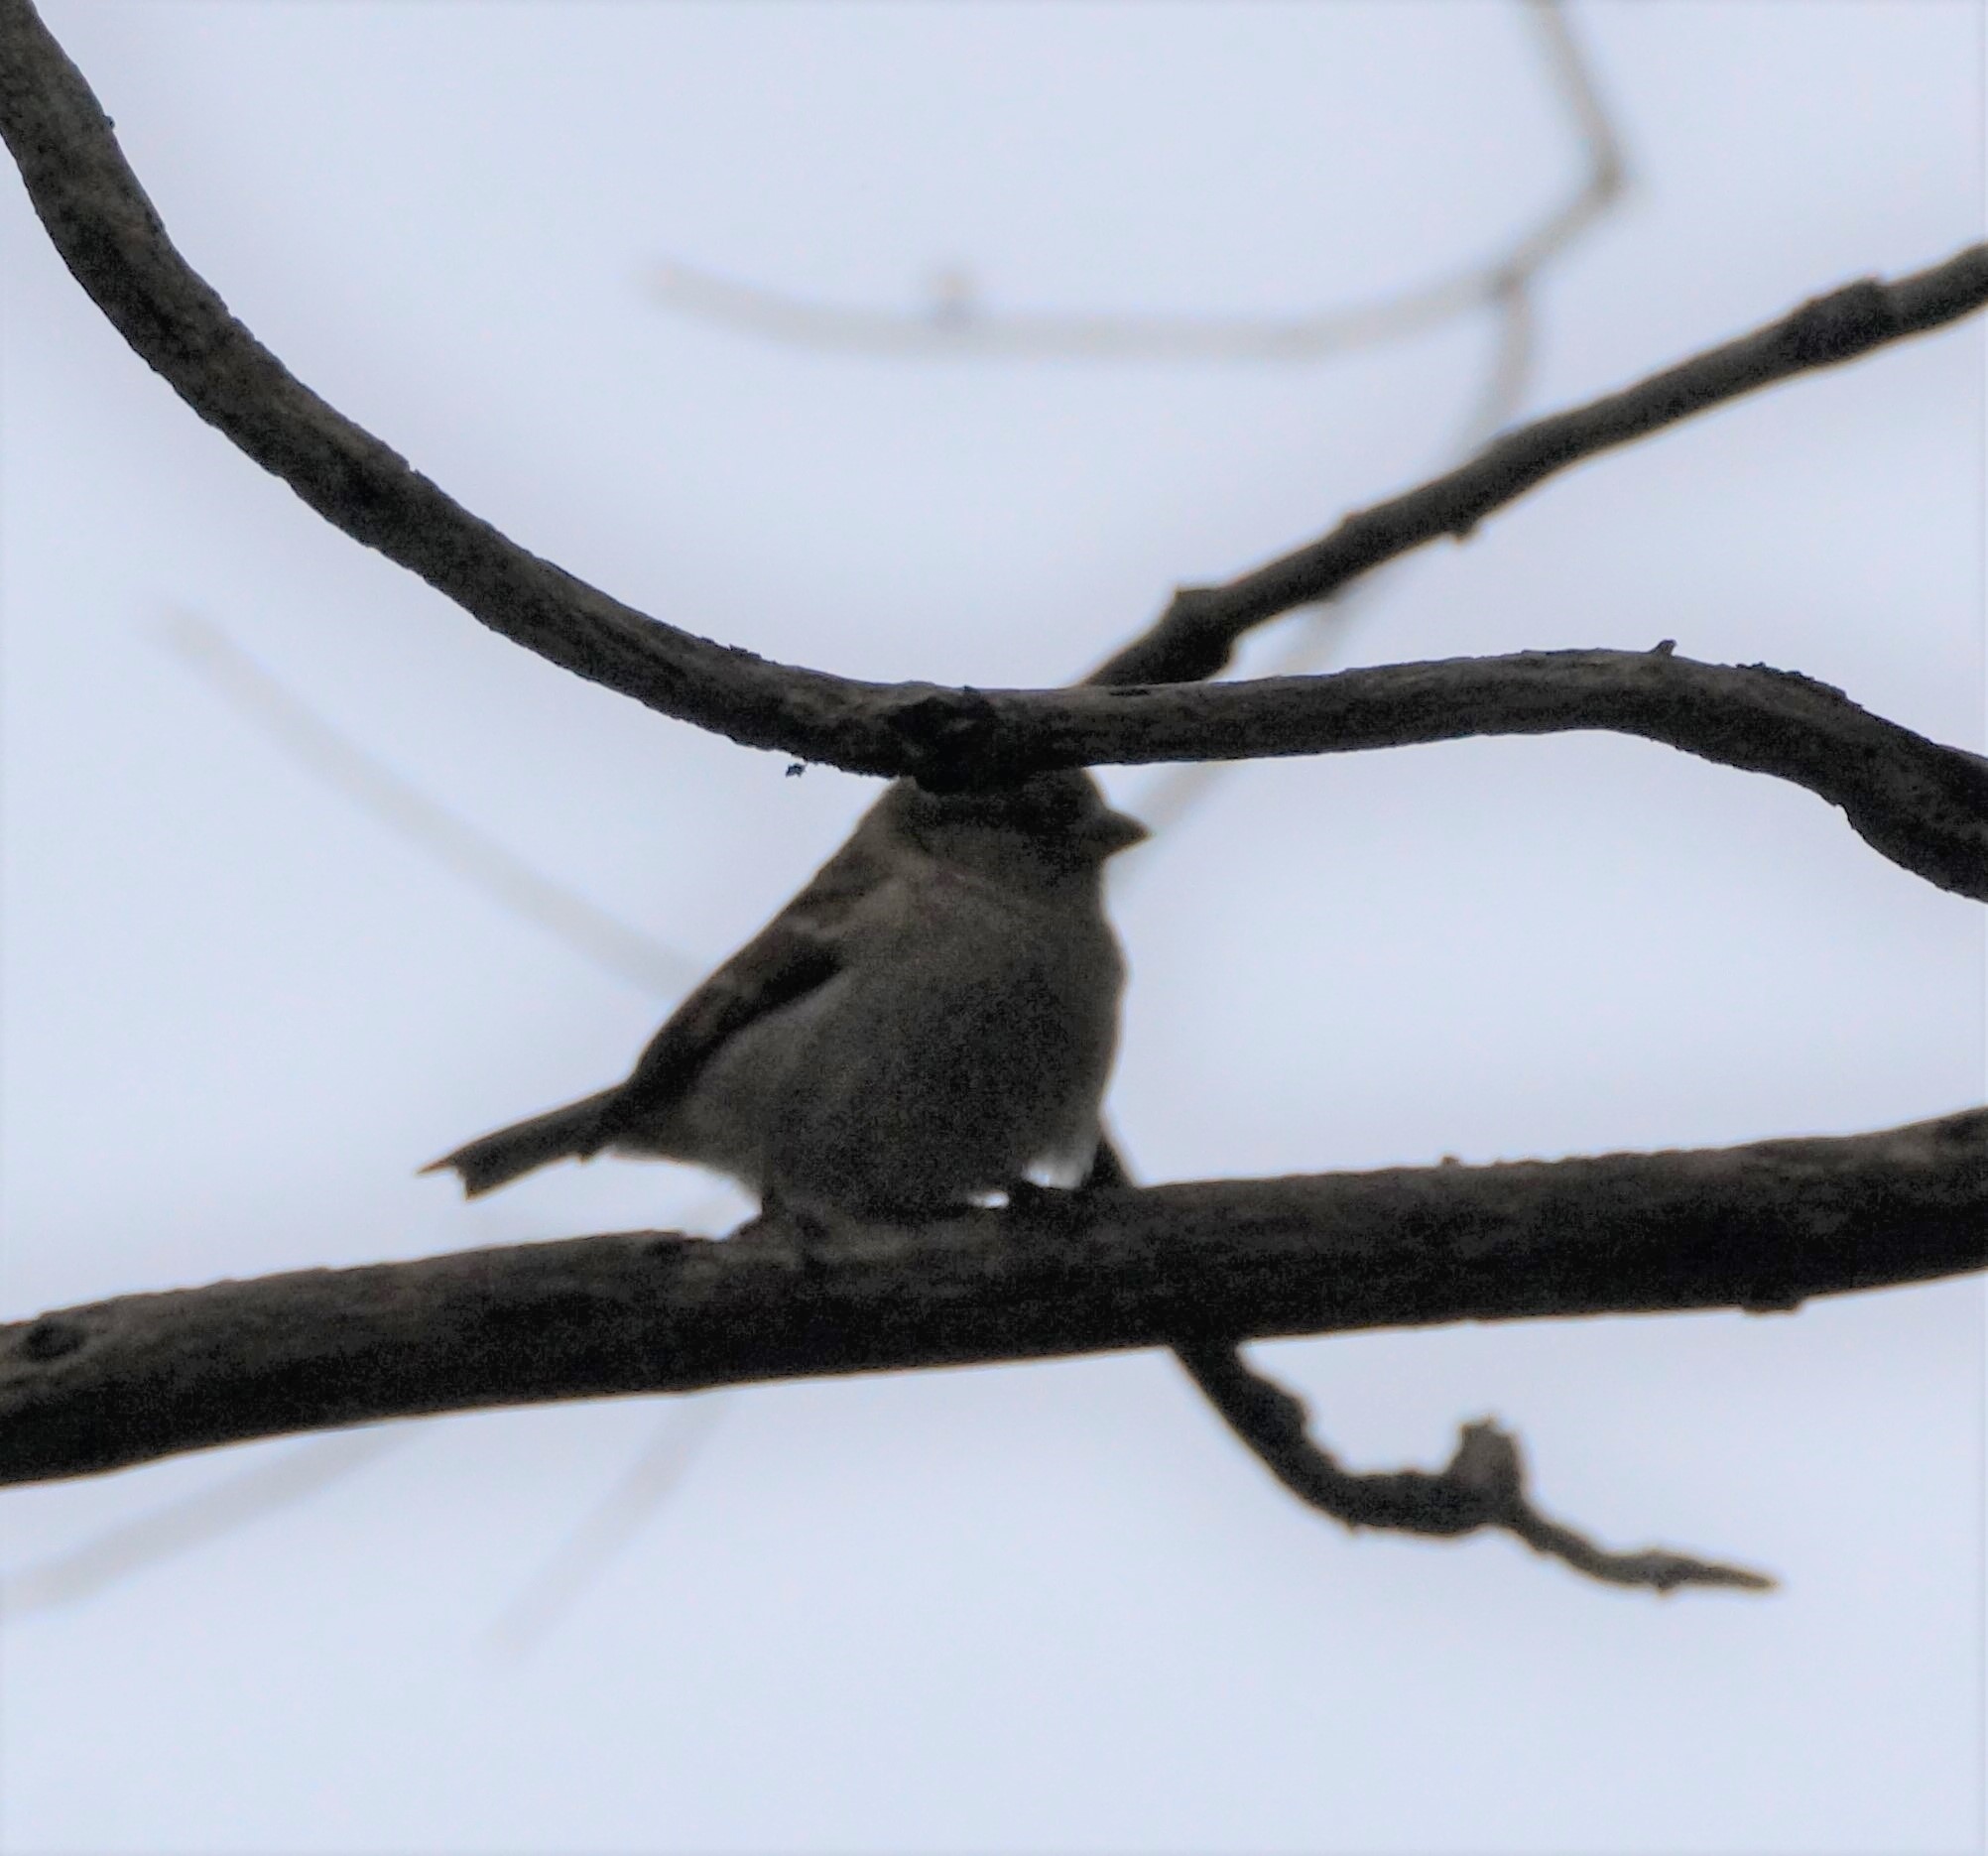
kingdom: Animalia
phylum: Chordata
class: Aves
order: Passeriformes
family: Passeridae
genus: Passer
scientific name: Passer domesticus
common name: House sparrow
